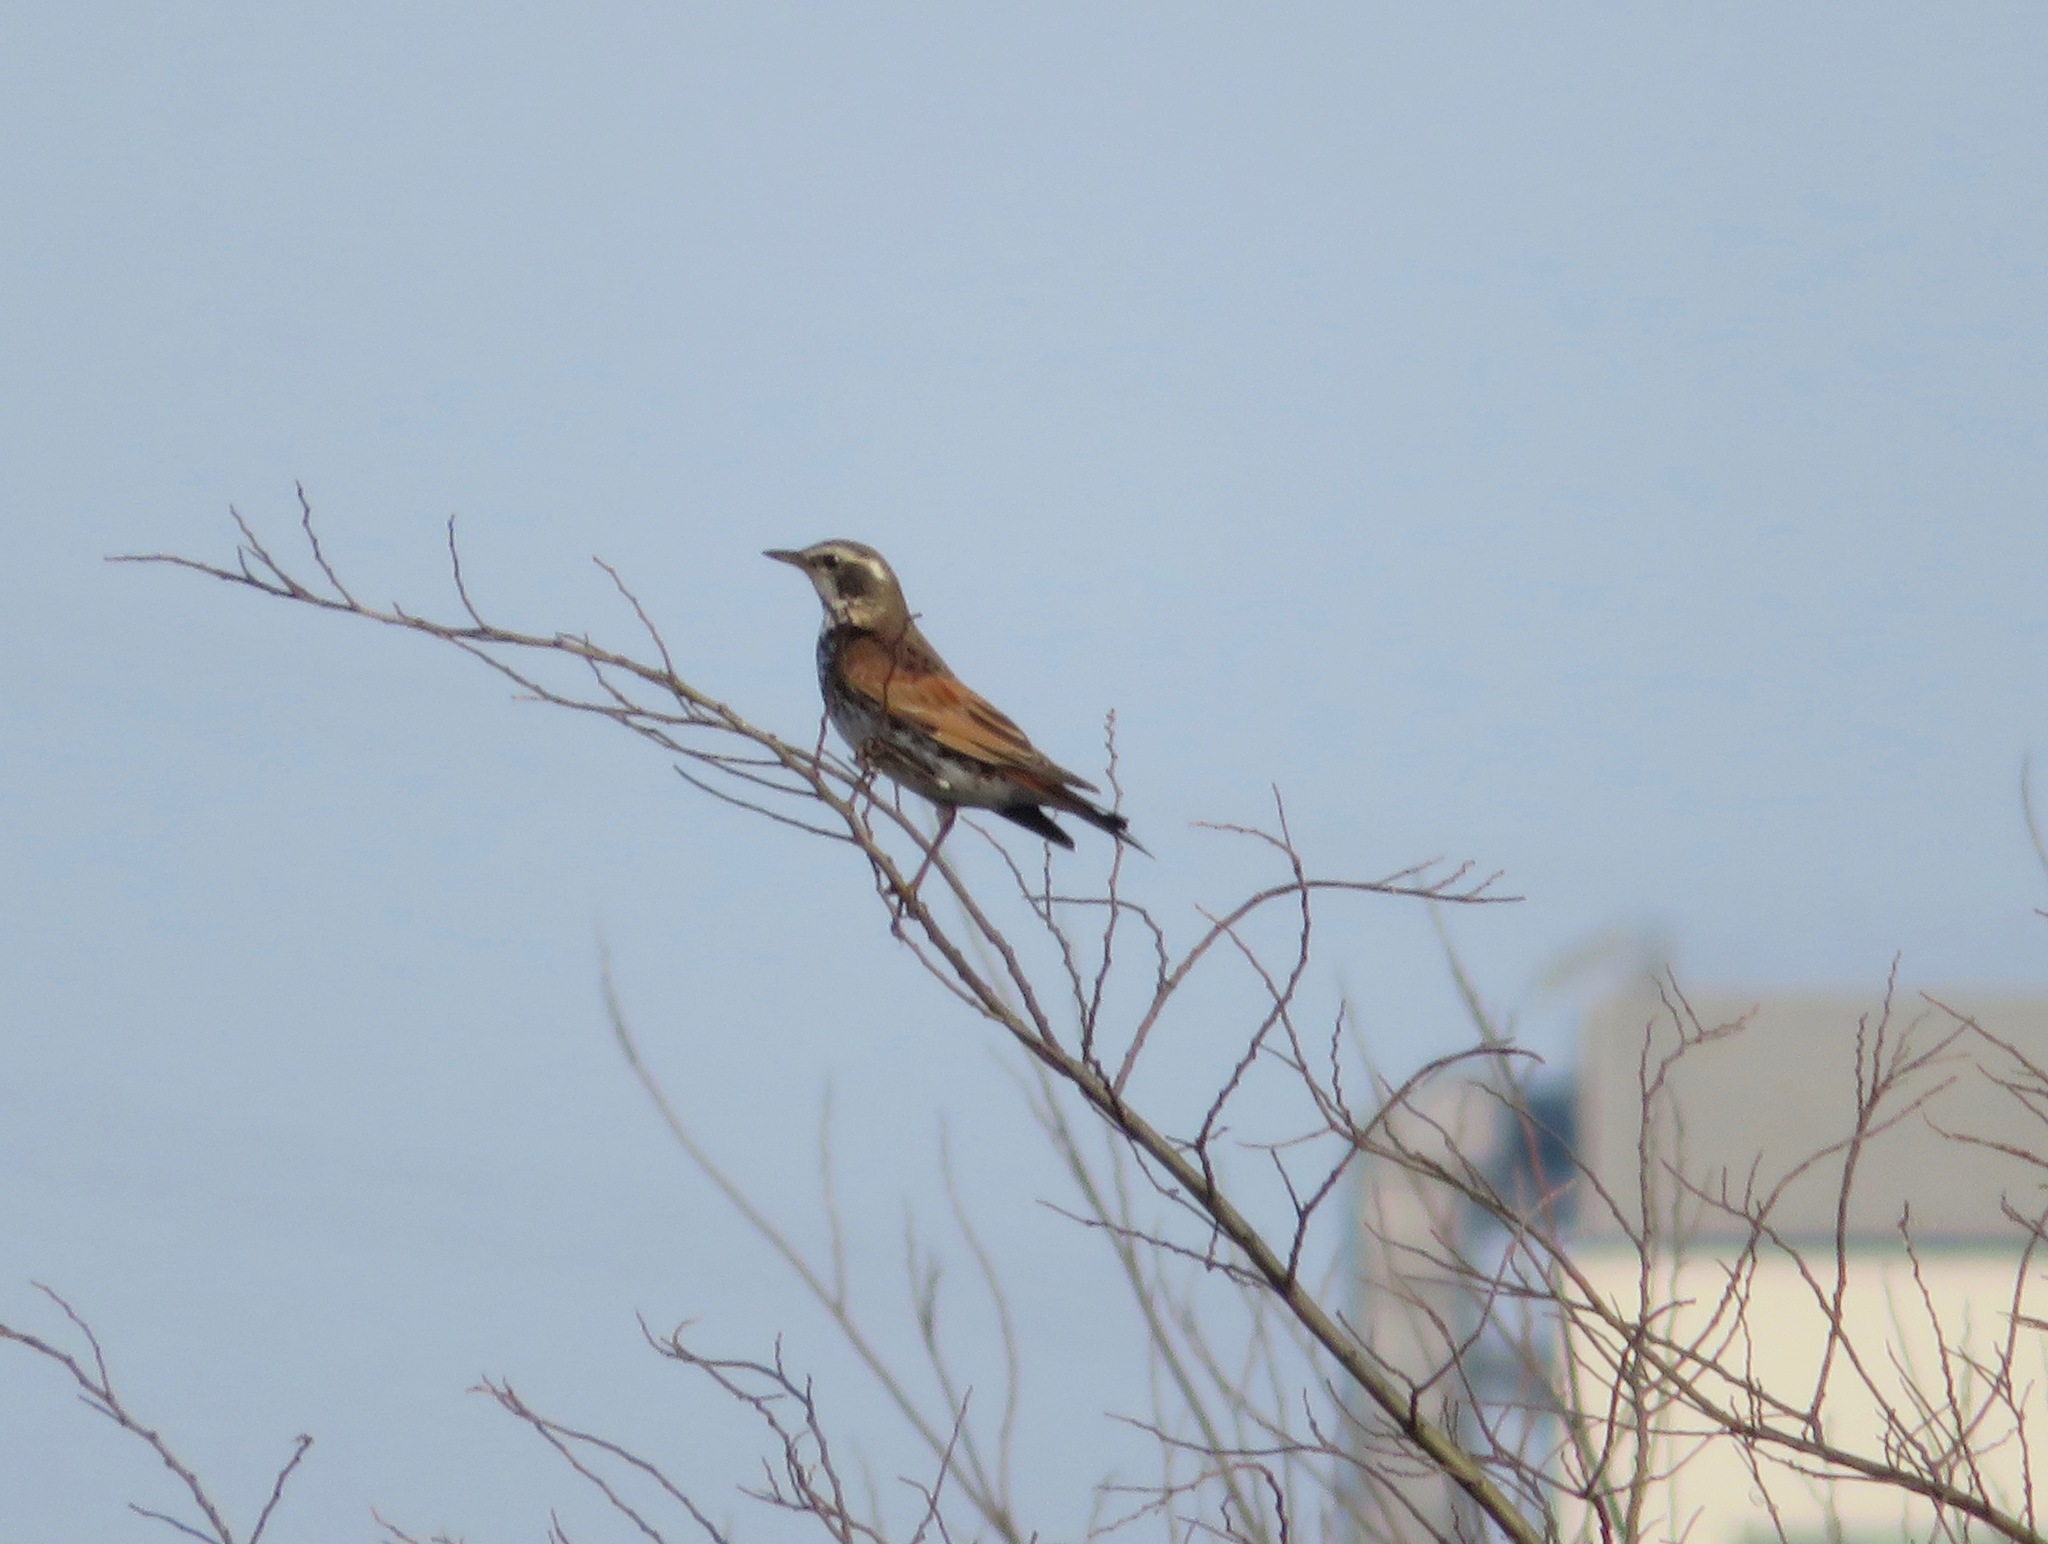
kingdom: Animalia
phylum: Chordata
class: Aves
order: Passeriformes
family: Turdidae
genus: Turdus
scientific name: Turdus eunomus
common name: Dusky thrush
